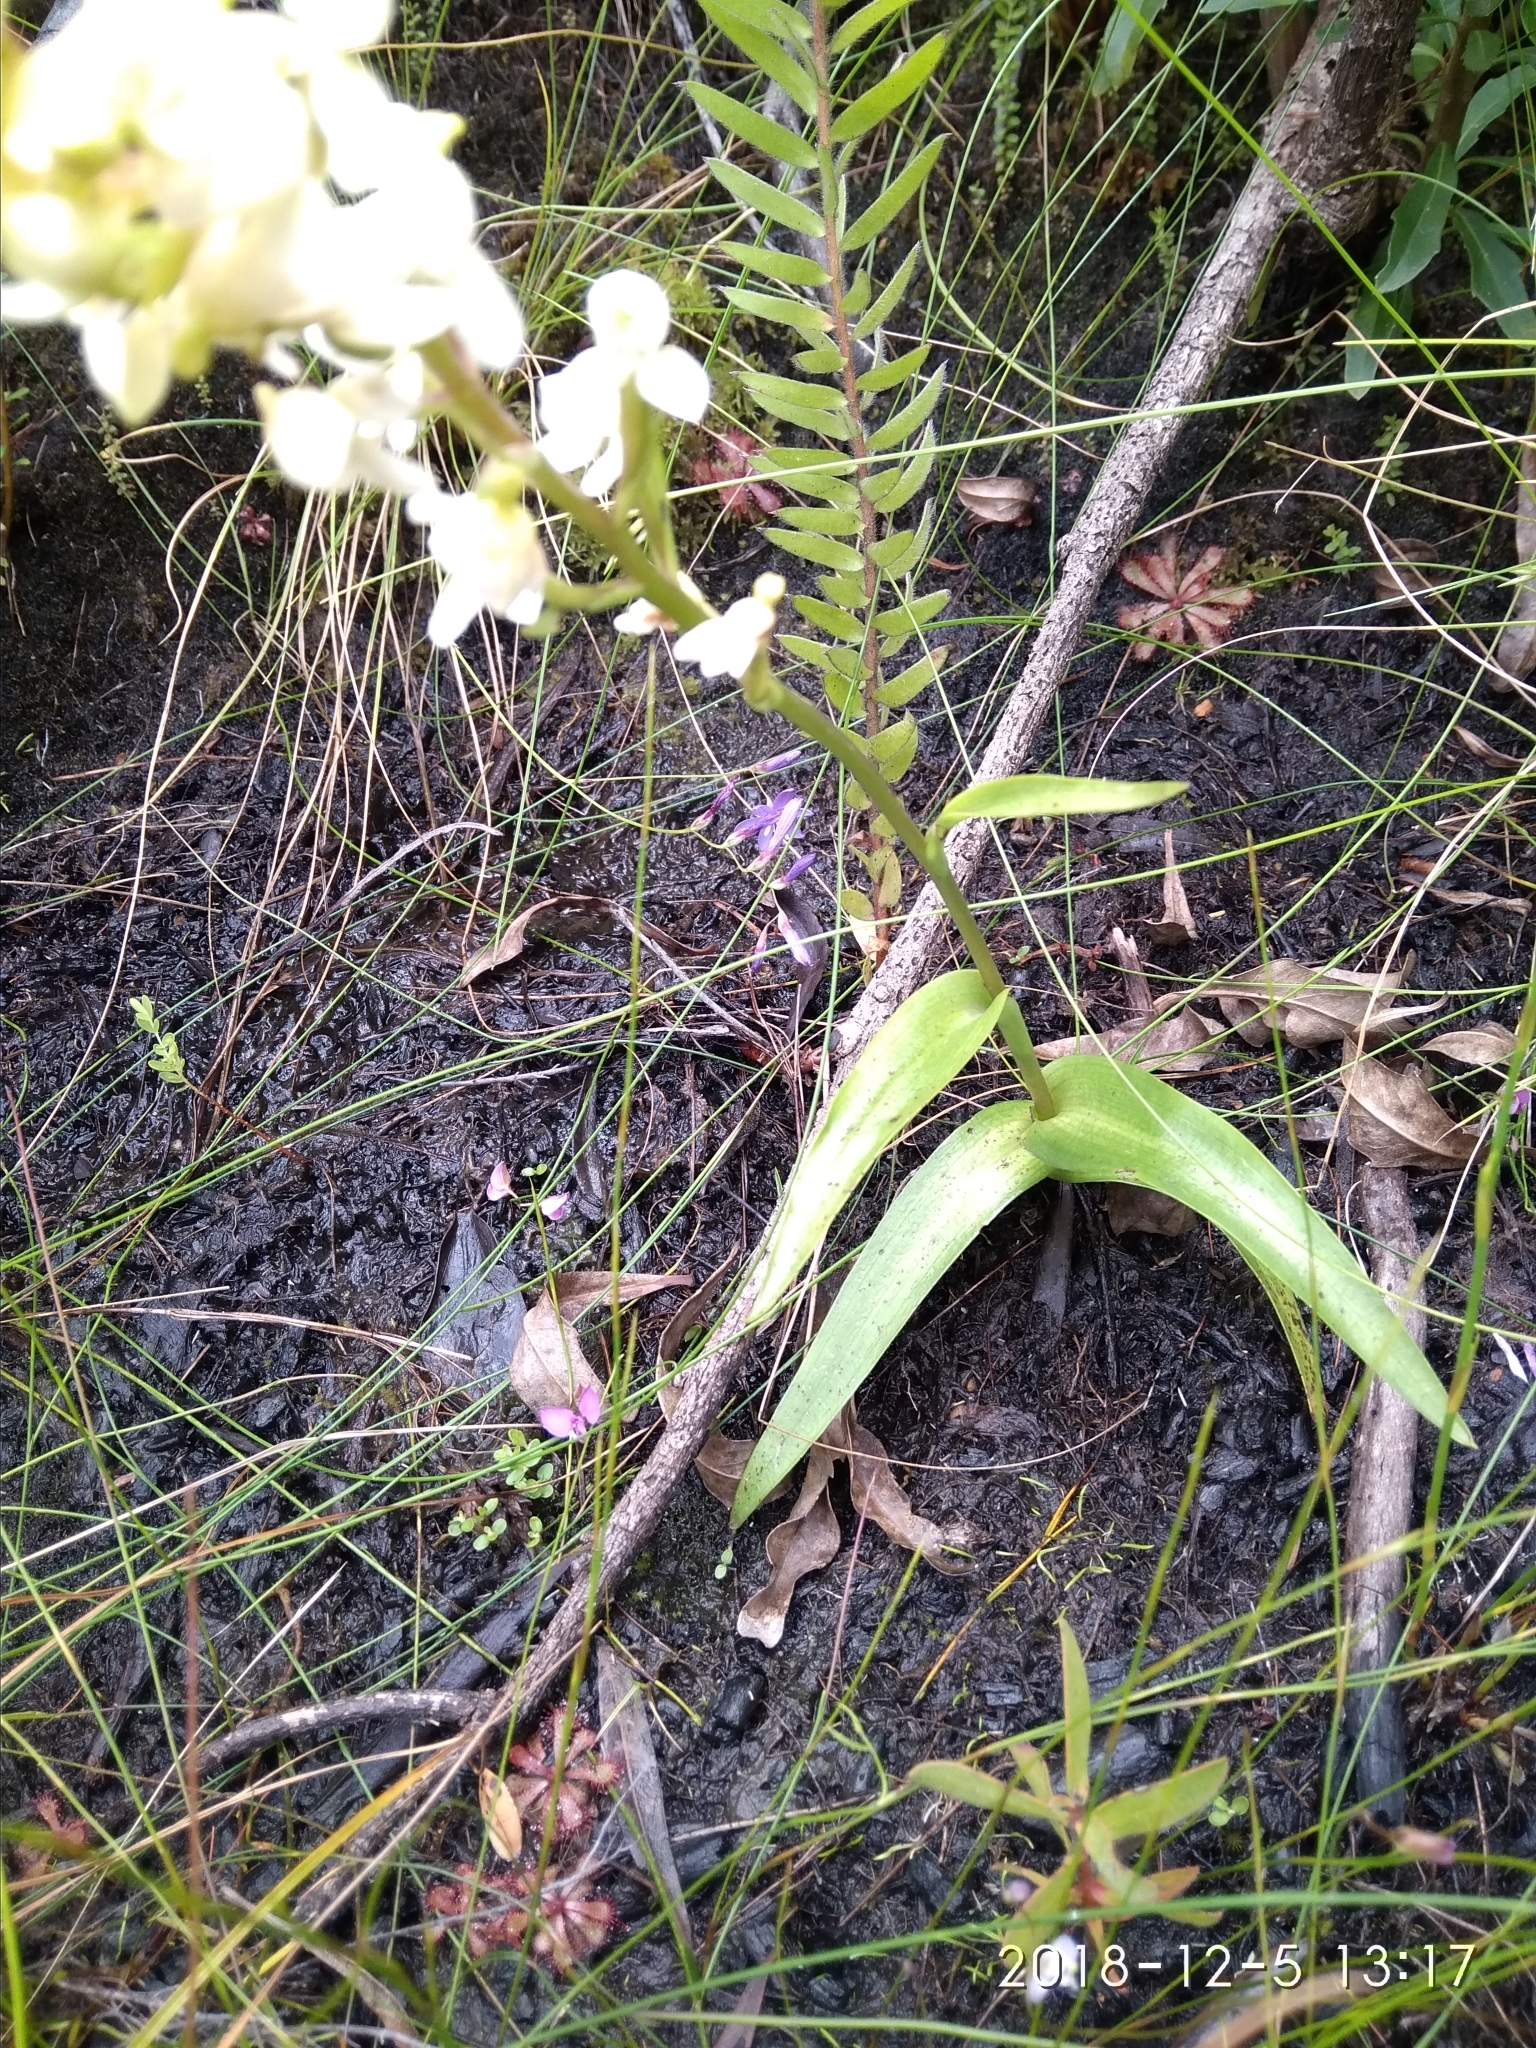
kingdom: Plantae
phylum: Tracheophyta
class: Liliopsida
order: Asparagales
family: Orchidaceae
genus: Disa
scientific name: Disa uncinata
